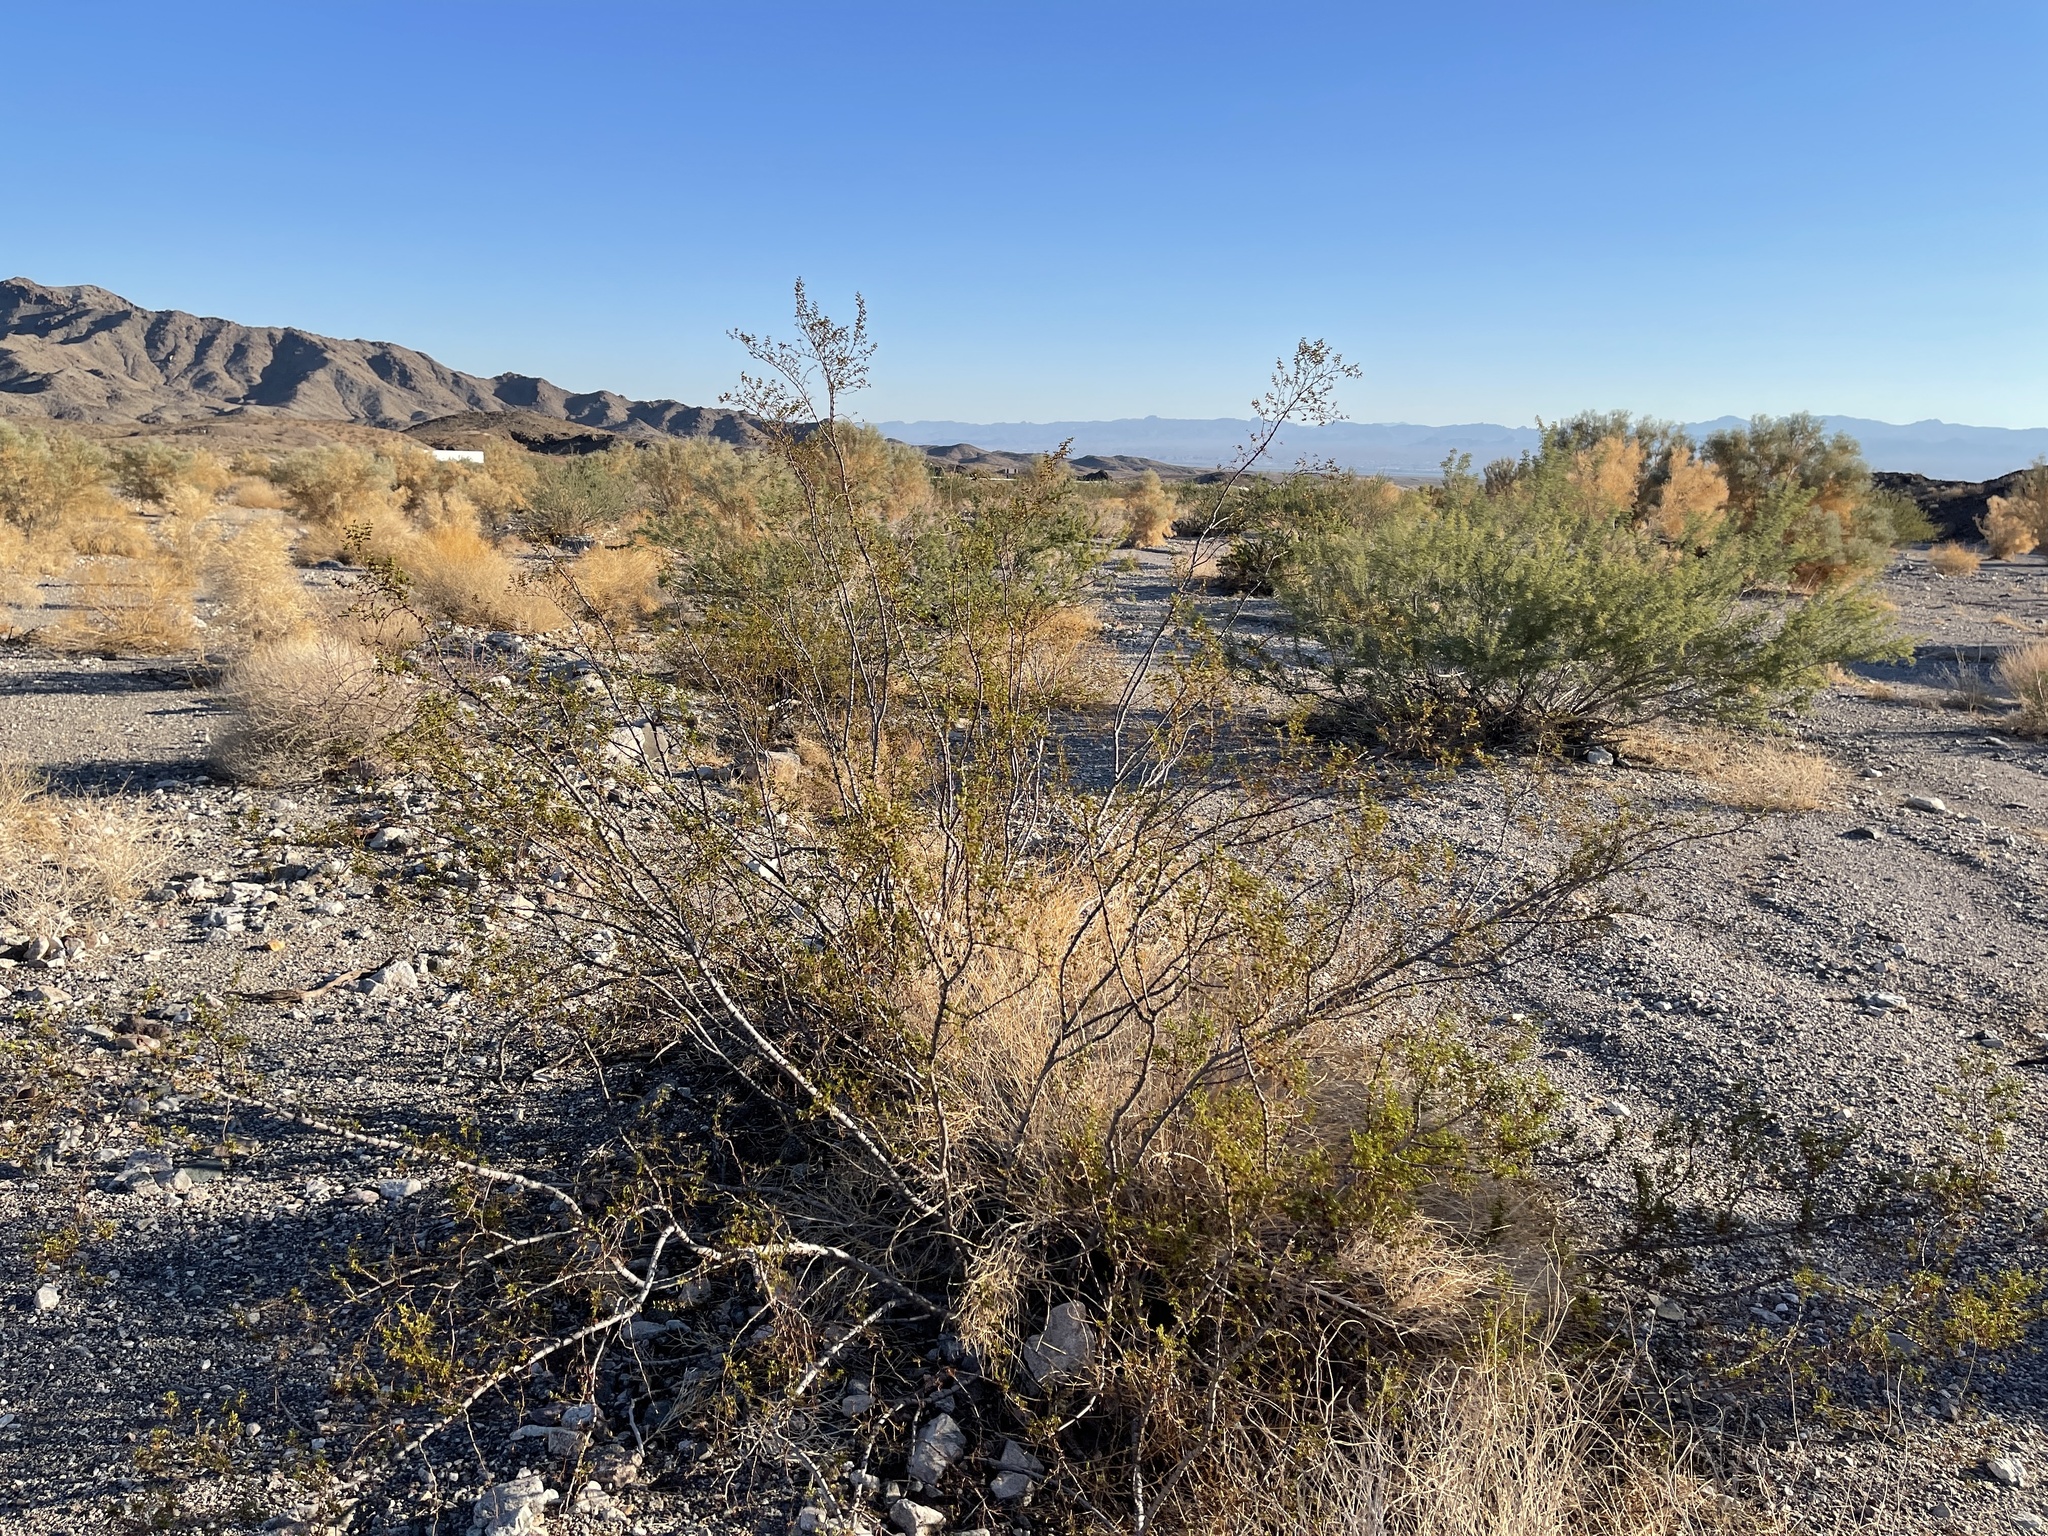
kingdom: Plantae
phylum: Tracheophyta
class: Magnoliopsida
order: Zygophyllales
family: Zygophyllaceae
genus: Larrea
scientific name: Larrea tridentata
